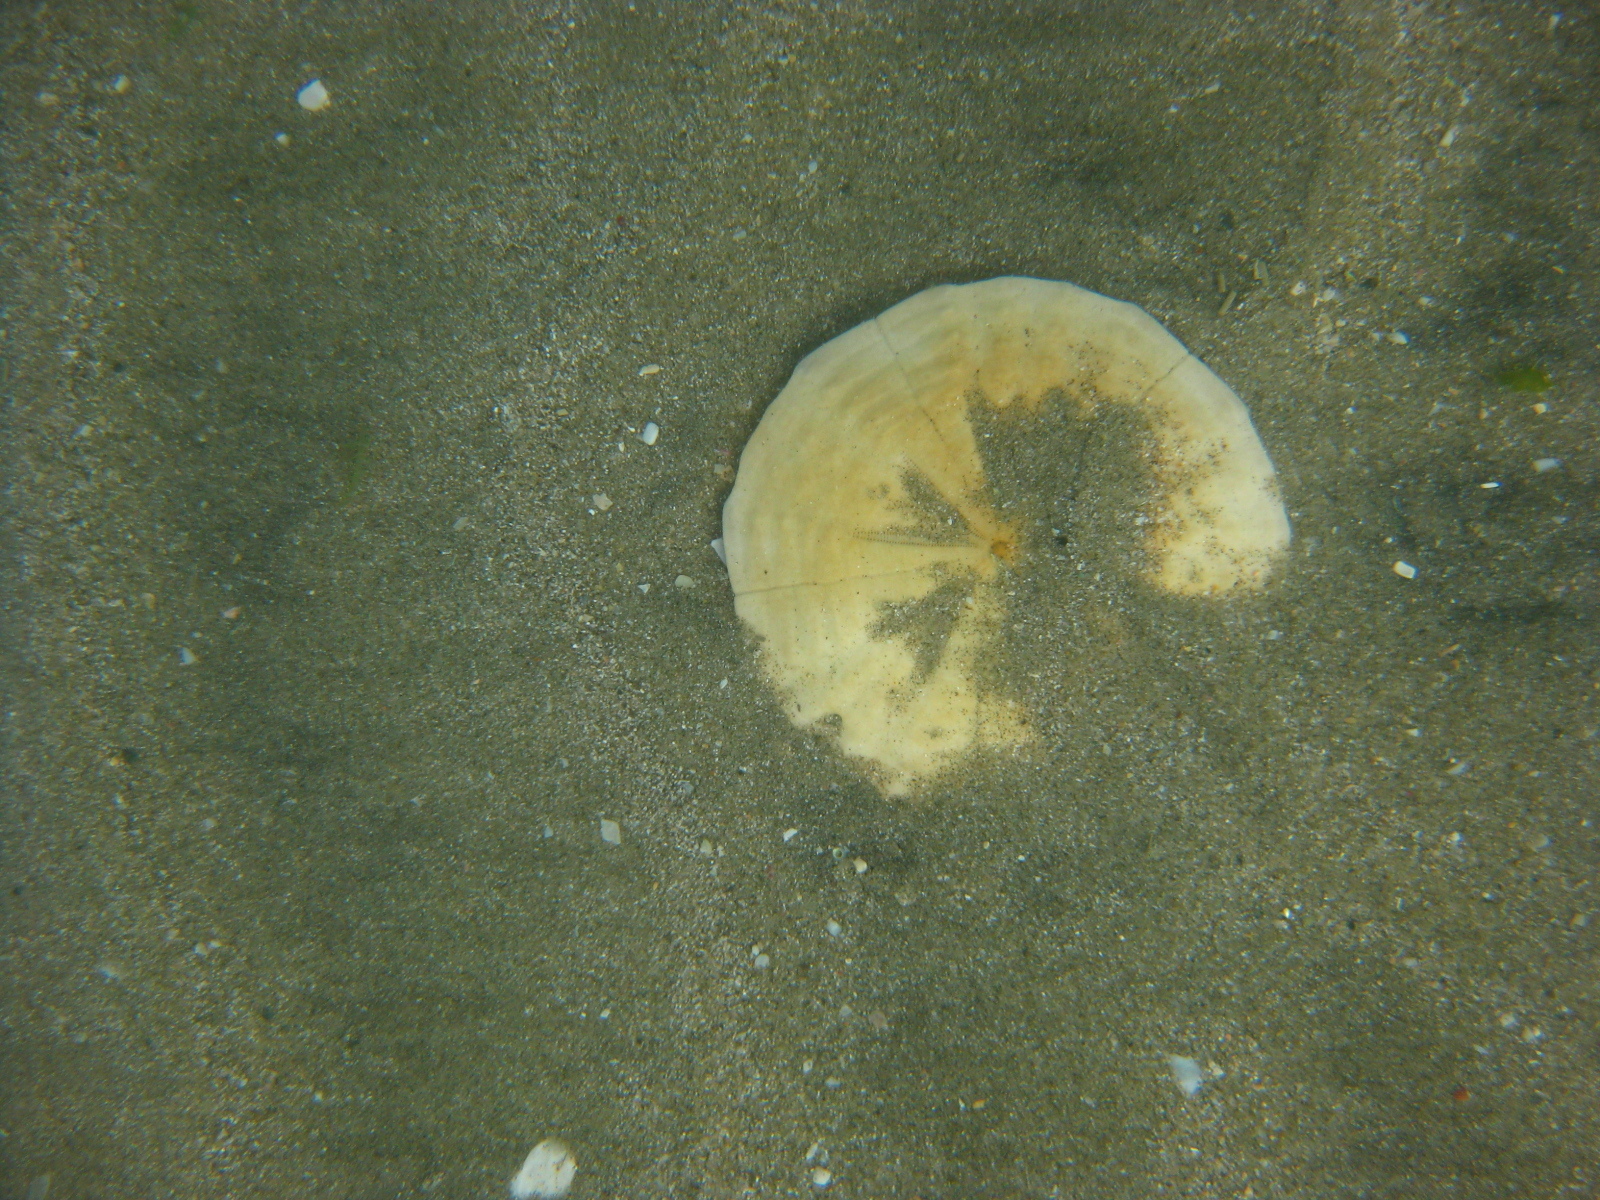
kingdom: Animalia
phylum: Echinodermata
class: Echinoidea
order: Clypeasteroida
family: Clypeasteridae
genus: Fellaster
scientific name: Fellaster zelandiae
